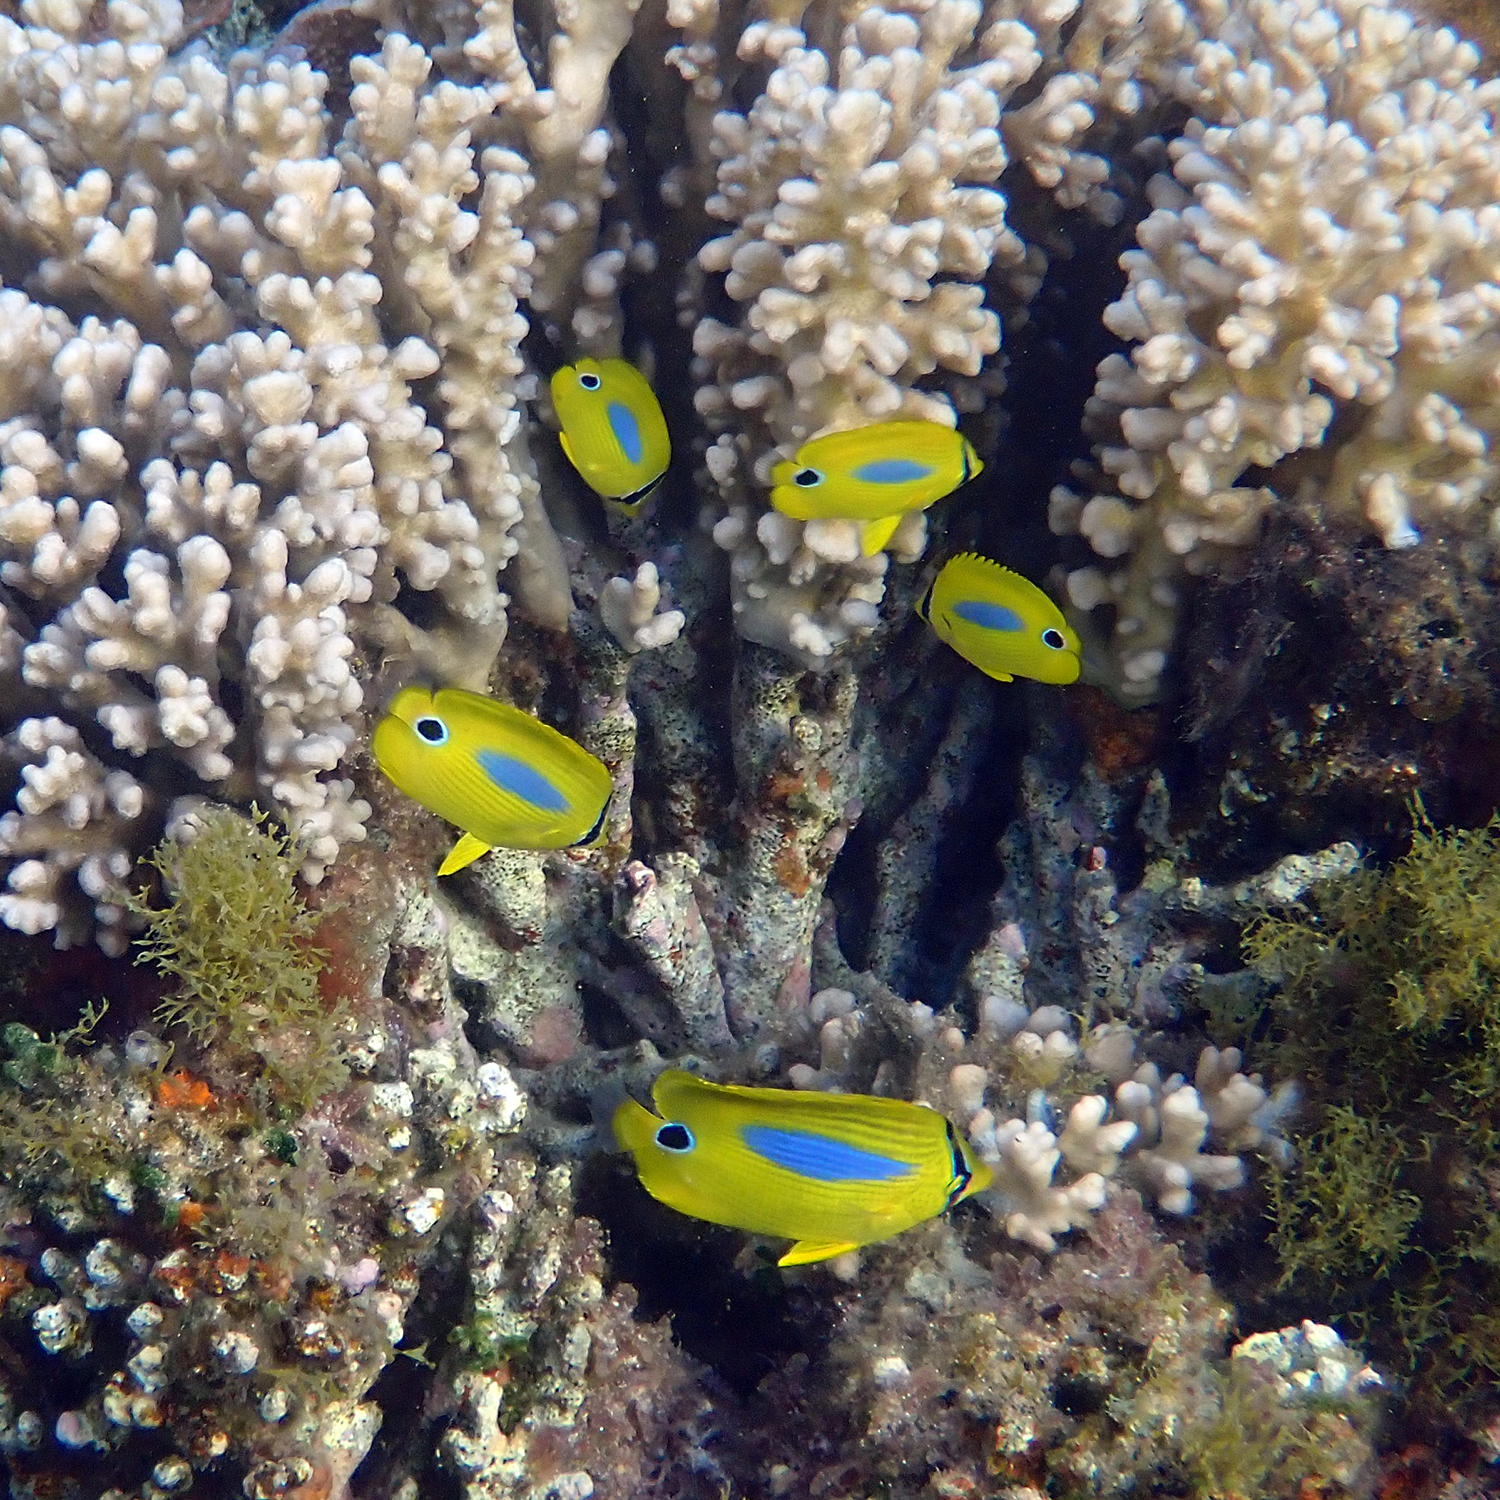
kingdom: Animalia
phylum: Chordata
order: Perciformes
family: Chaetodontidae
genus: Chaetodon
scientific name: Chaetodon plebeius
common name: Bluespot butterflyfish
